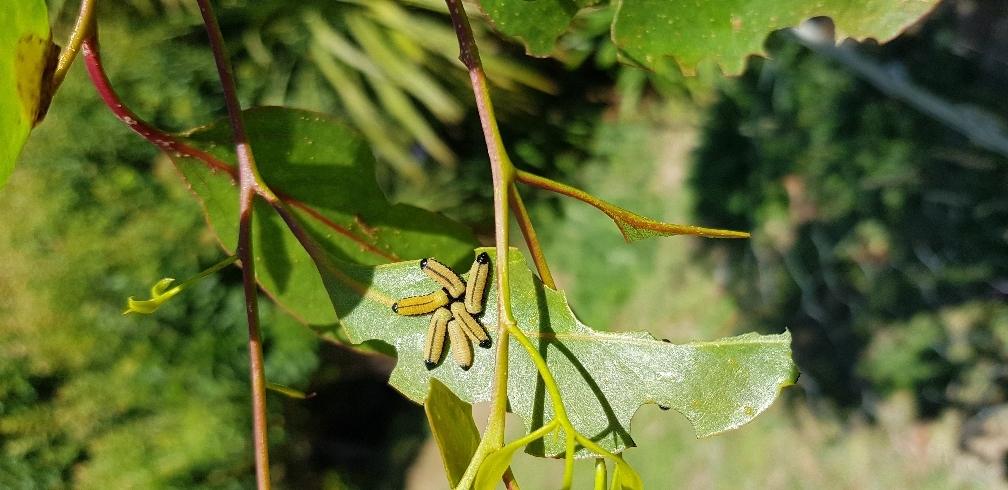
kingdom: Animalia
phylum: Arthropoda
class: Insecta
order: Coleoptera
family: Chrysomelidae
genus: Paropsisterna
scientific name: Paropsisterna cloelia
